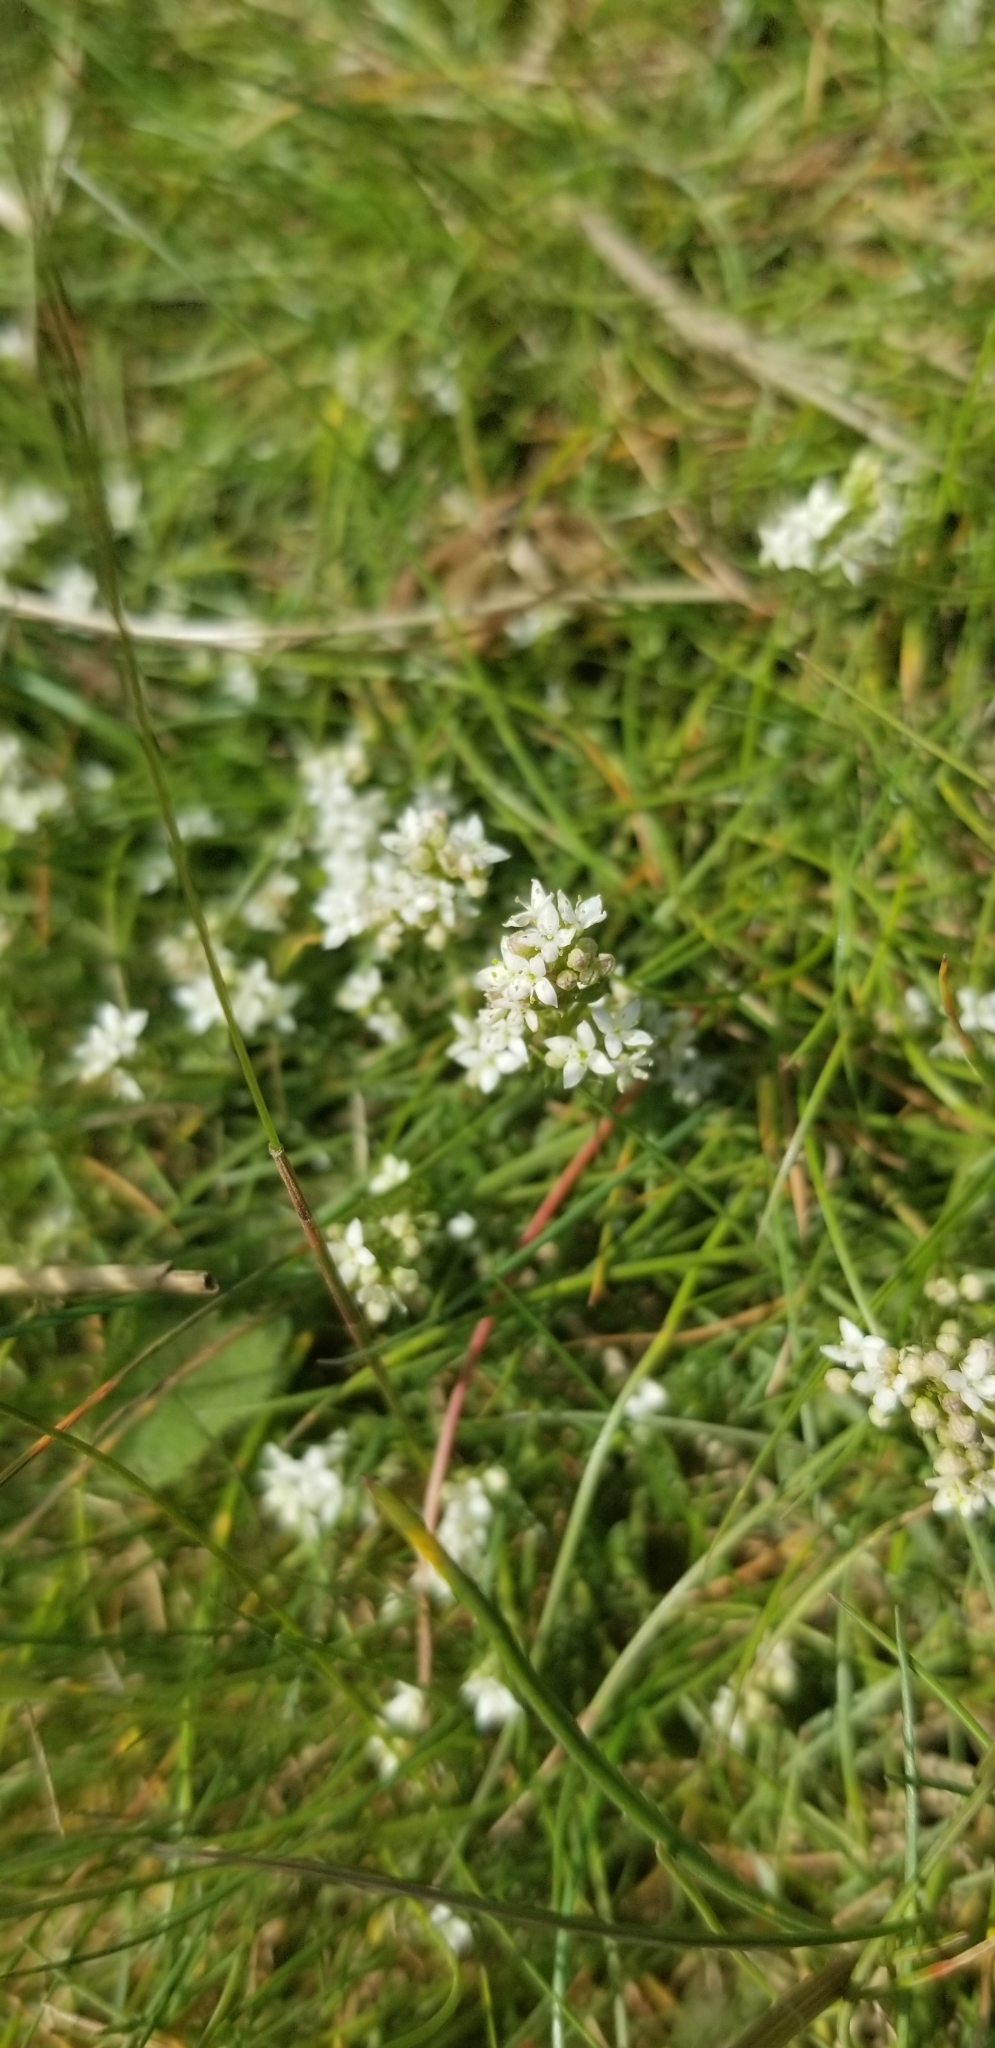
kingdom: Plantae
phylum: Tracheophyta
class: Magnoliopsida
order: Gentianales
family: Rubiaceae
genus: Galium
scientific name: Galium saxatile
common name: Heath bedstraw
